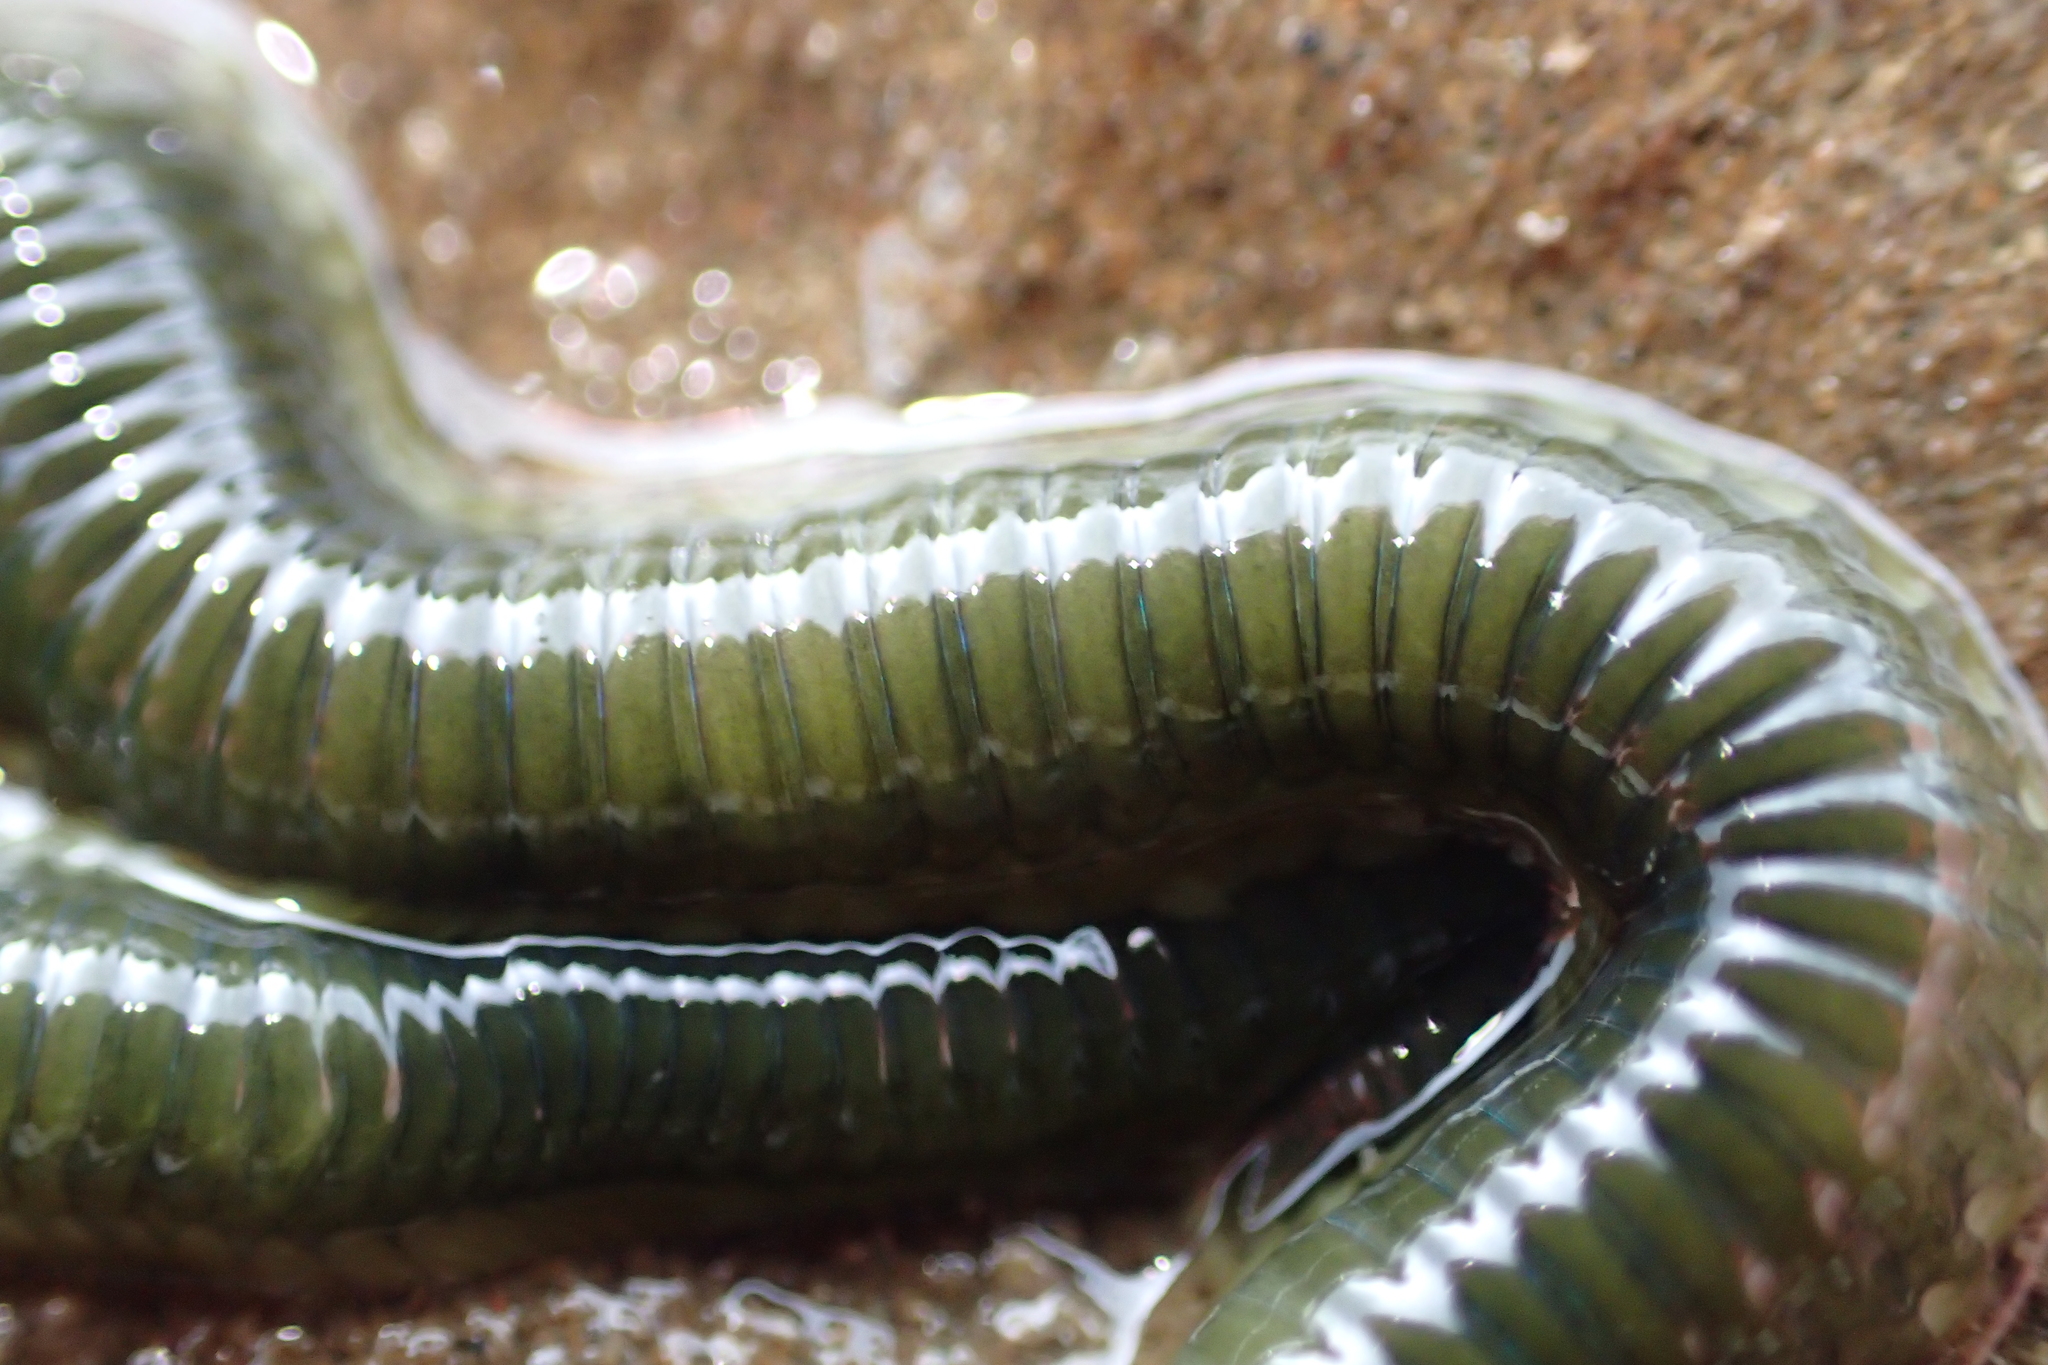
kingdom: Animalia
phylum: Annelida
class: Polychaeta
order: Phyllodocida
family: Phyllodocidae
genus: Eulalia
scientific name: Eulalia microphylla
